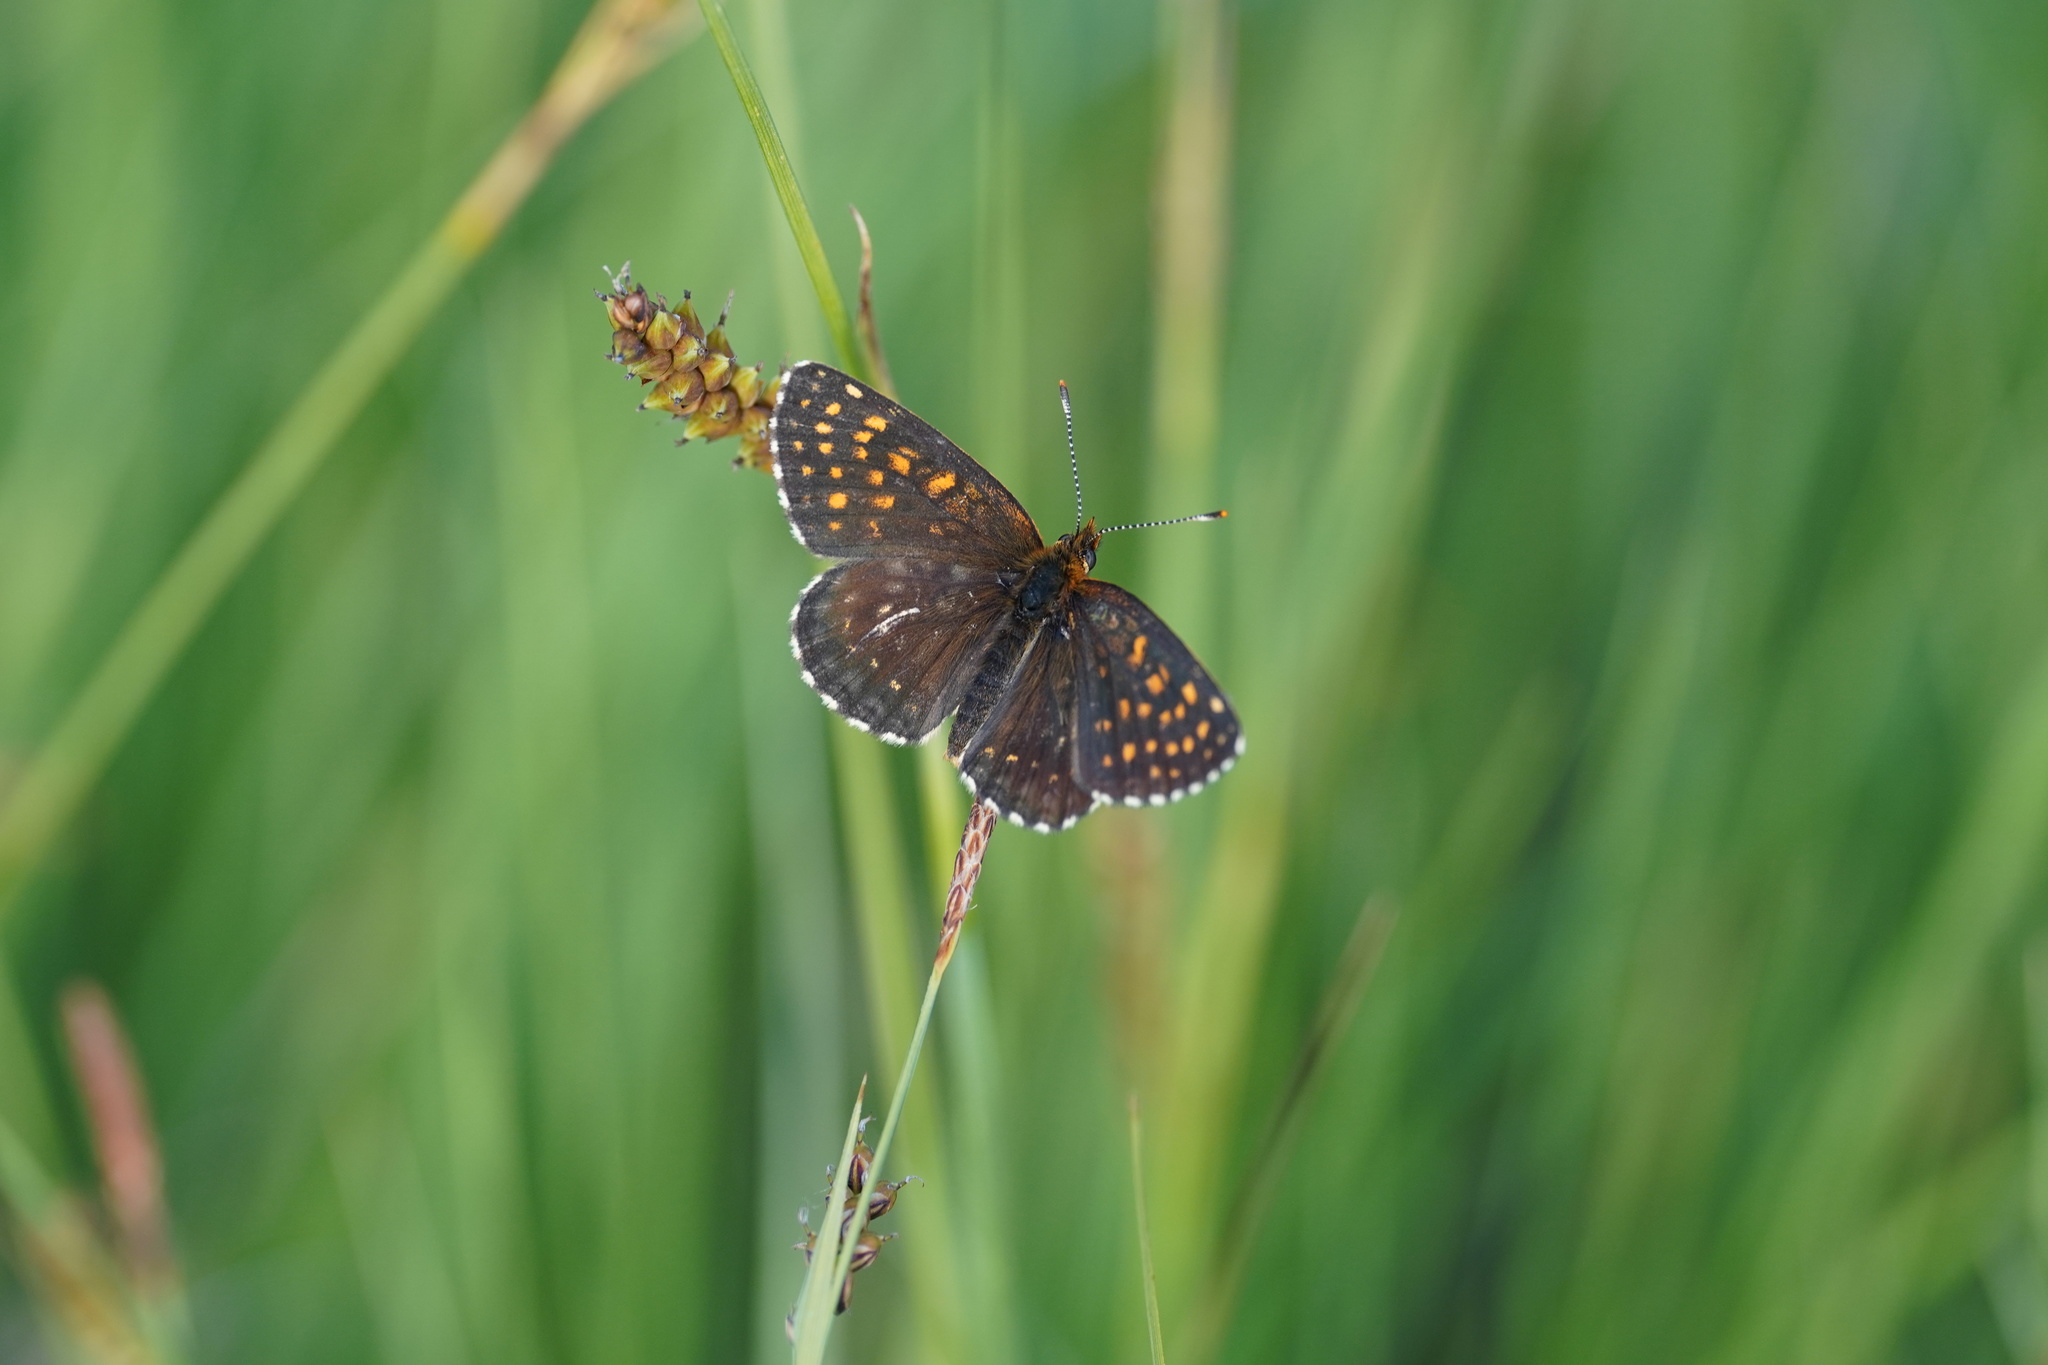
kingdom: Animalia
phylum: Arthropoda
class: Insecta
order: Lepidoptera
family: Nymphalidae
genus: Melitaea
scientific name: Melitaea diamina
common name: False heath fritillary
